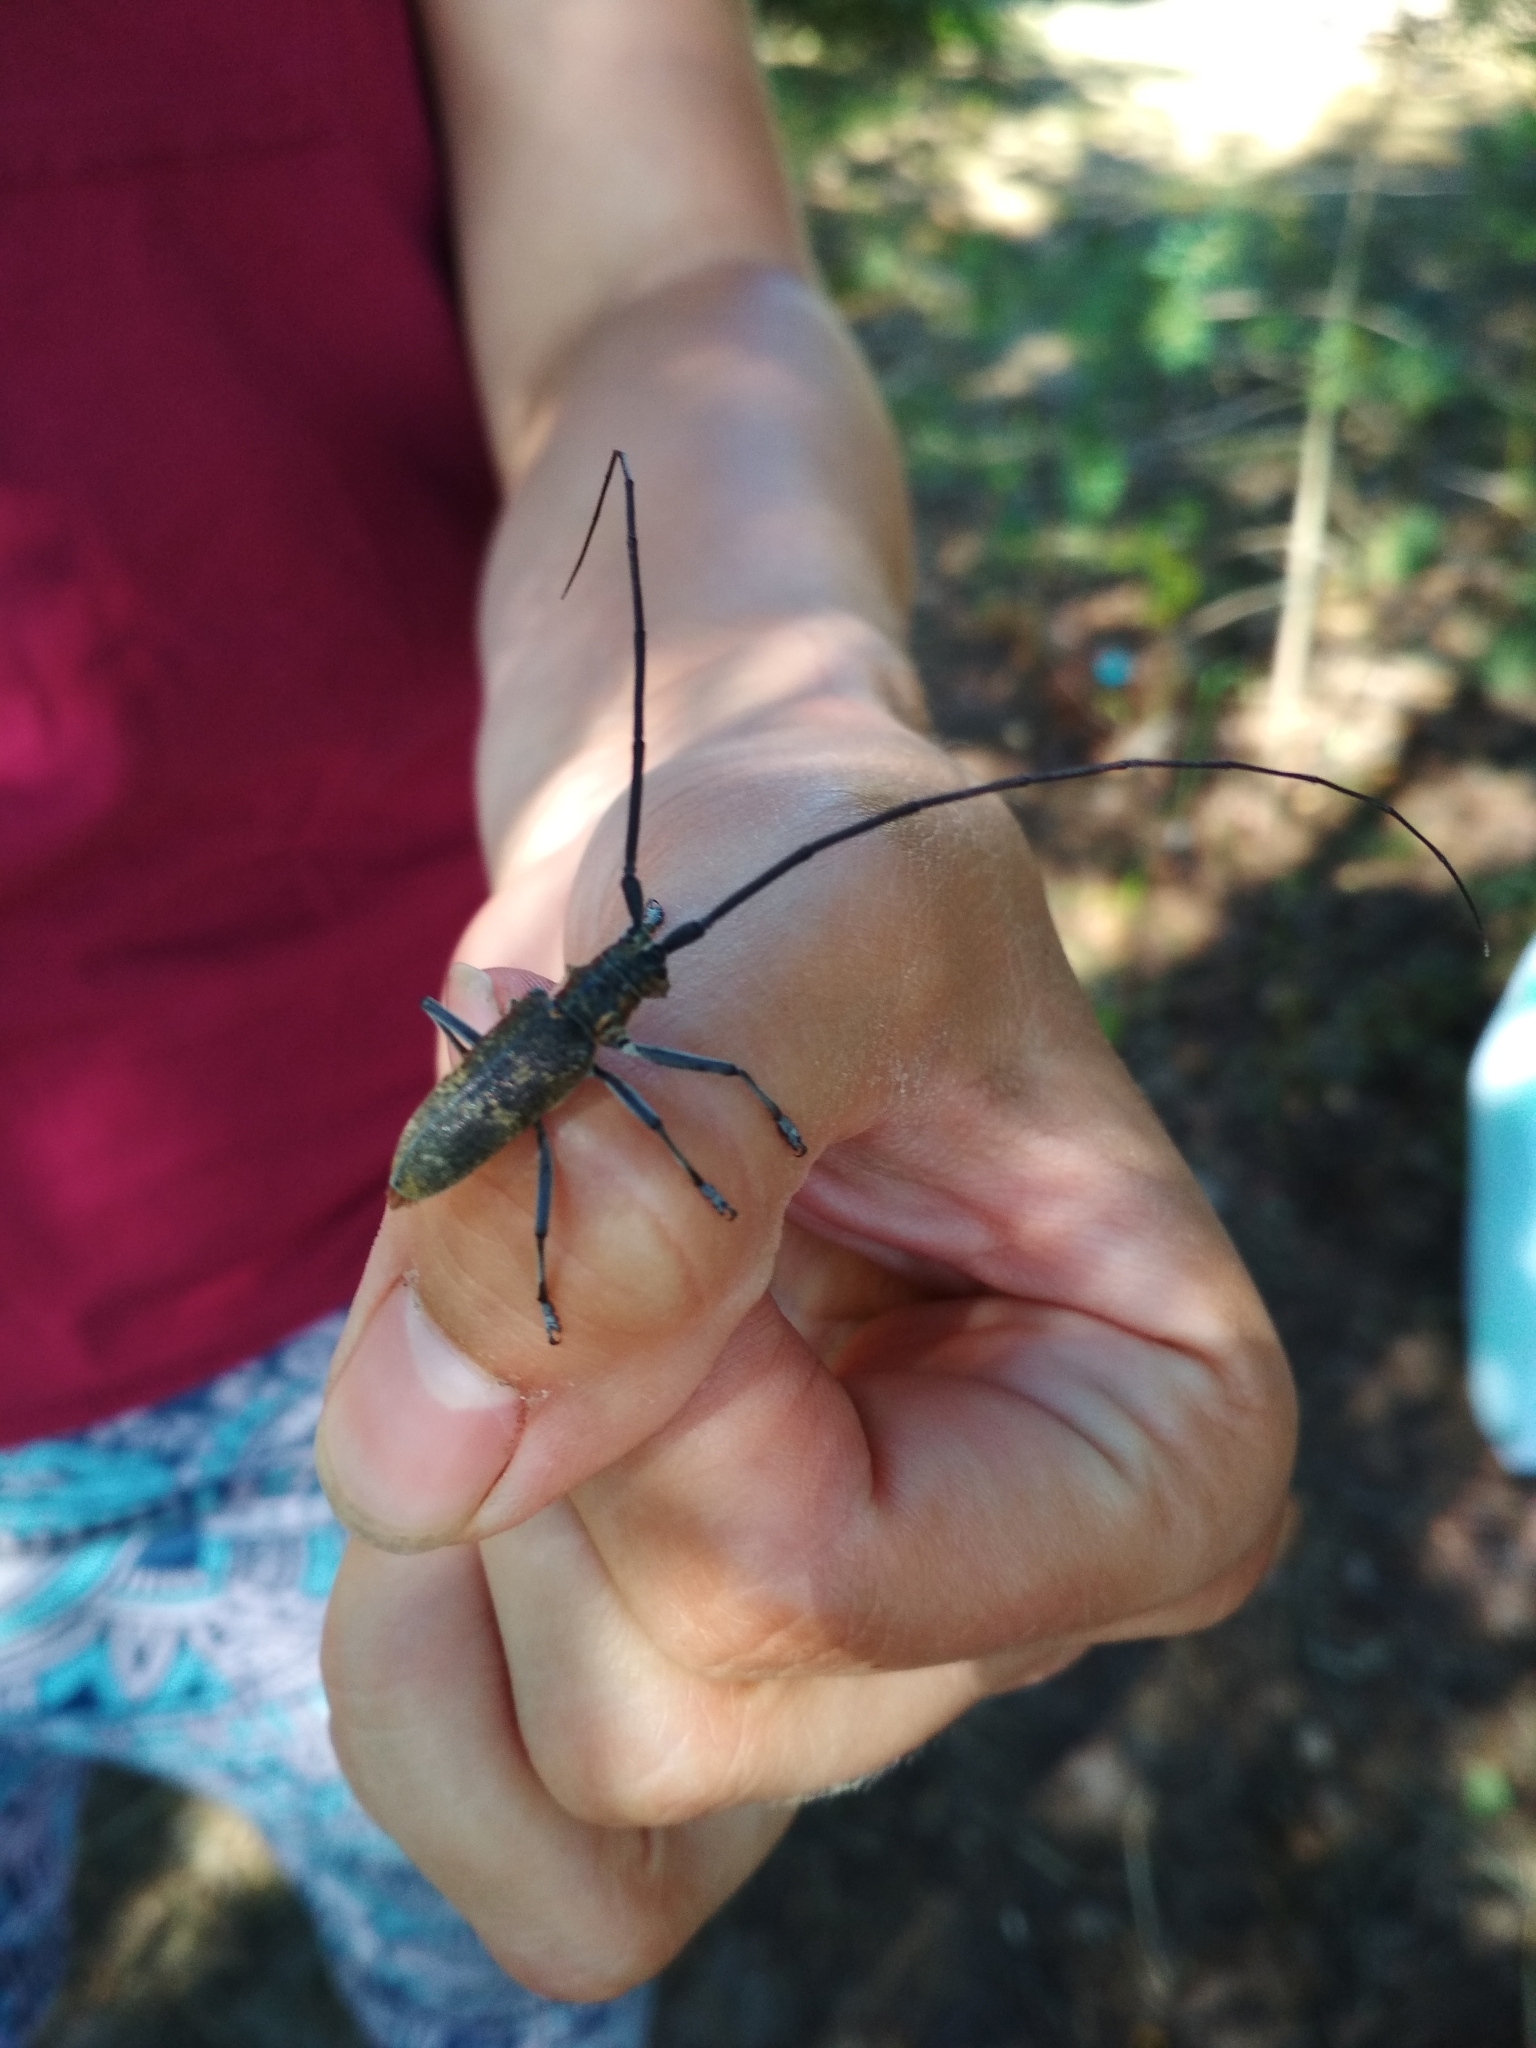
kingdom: Animalia
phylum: Arthropoda
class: Insecta
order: Coleoptera
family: Cerambycidae
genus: Monochamus
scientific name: Monochamus galloprovincialis
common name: Pine sawyer
